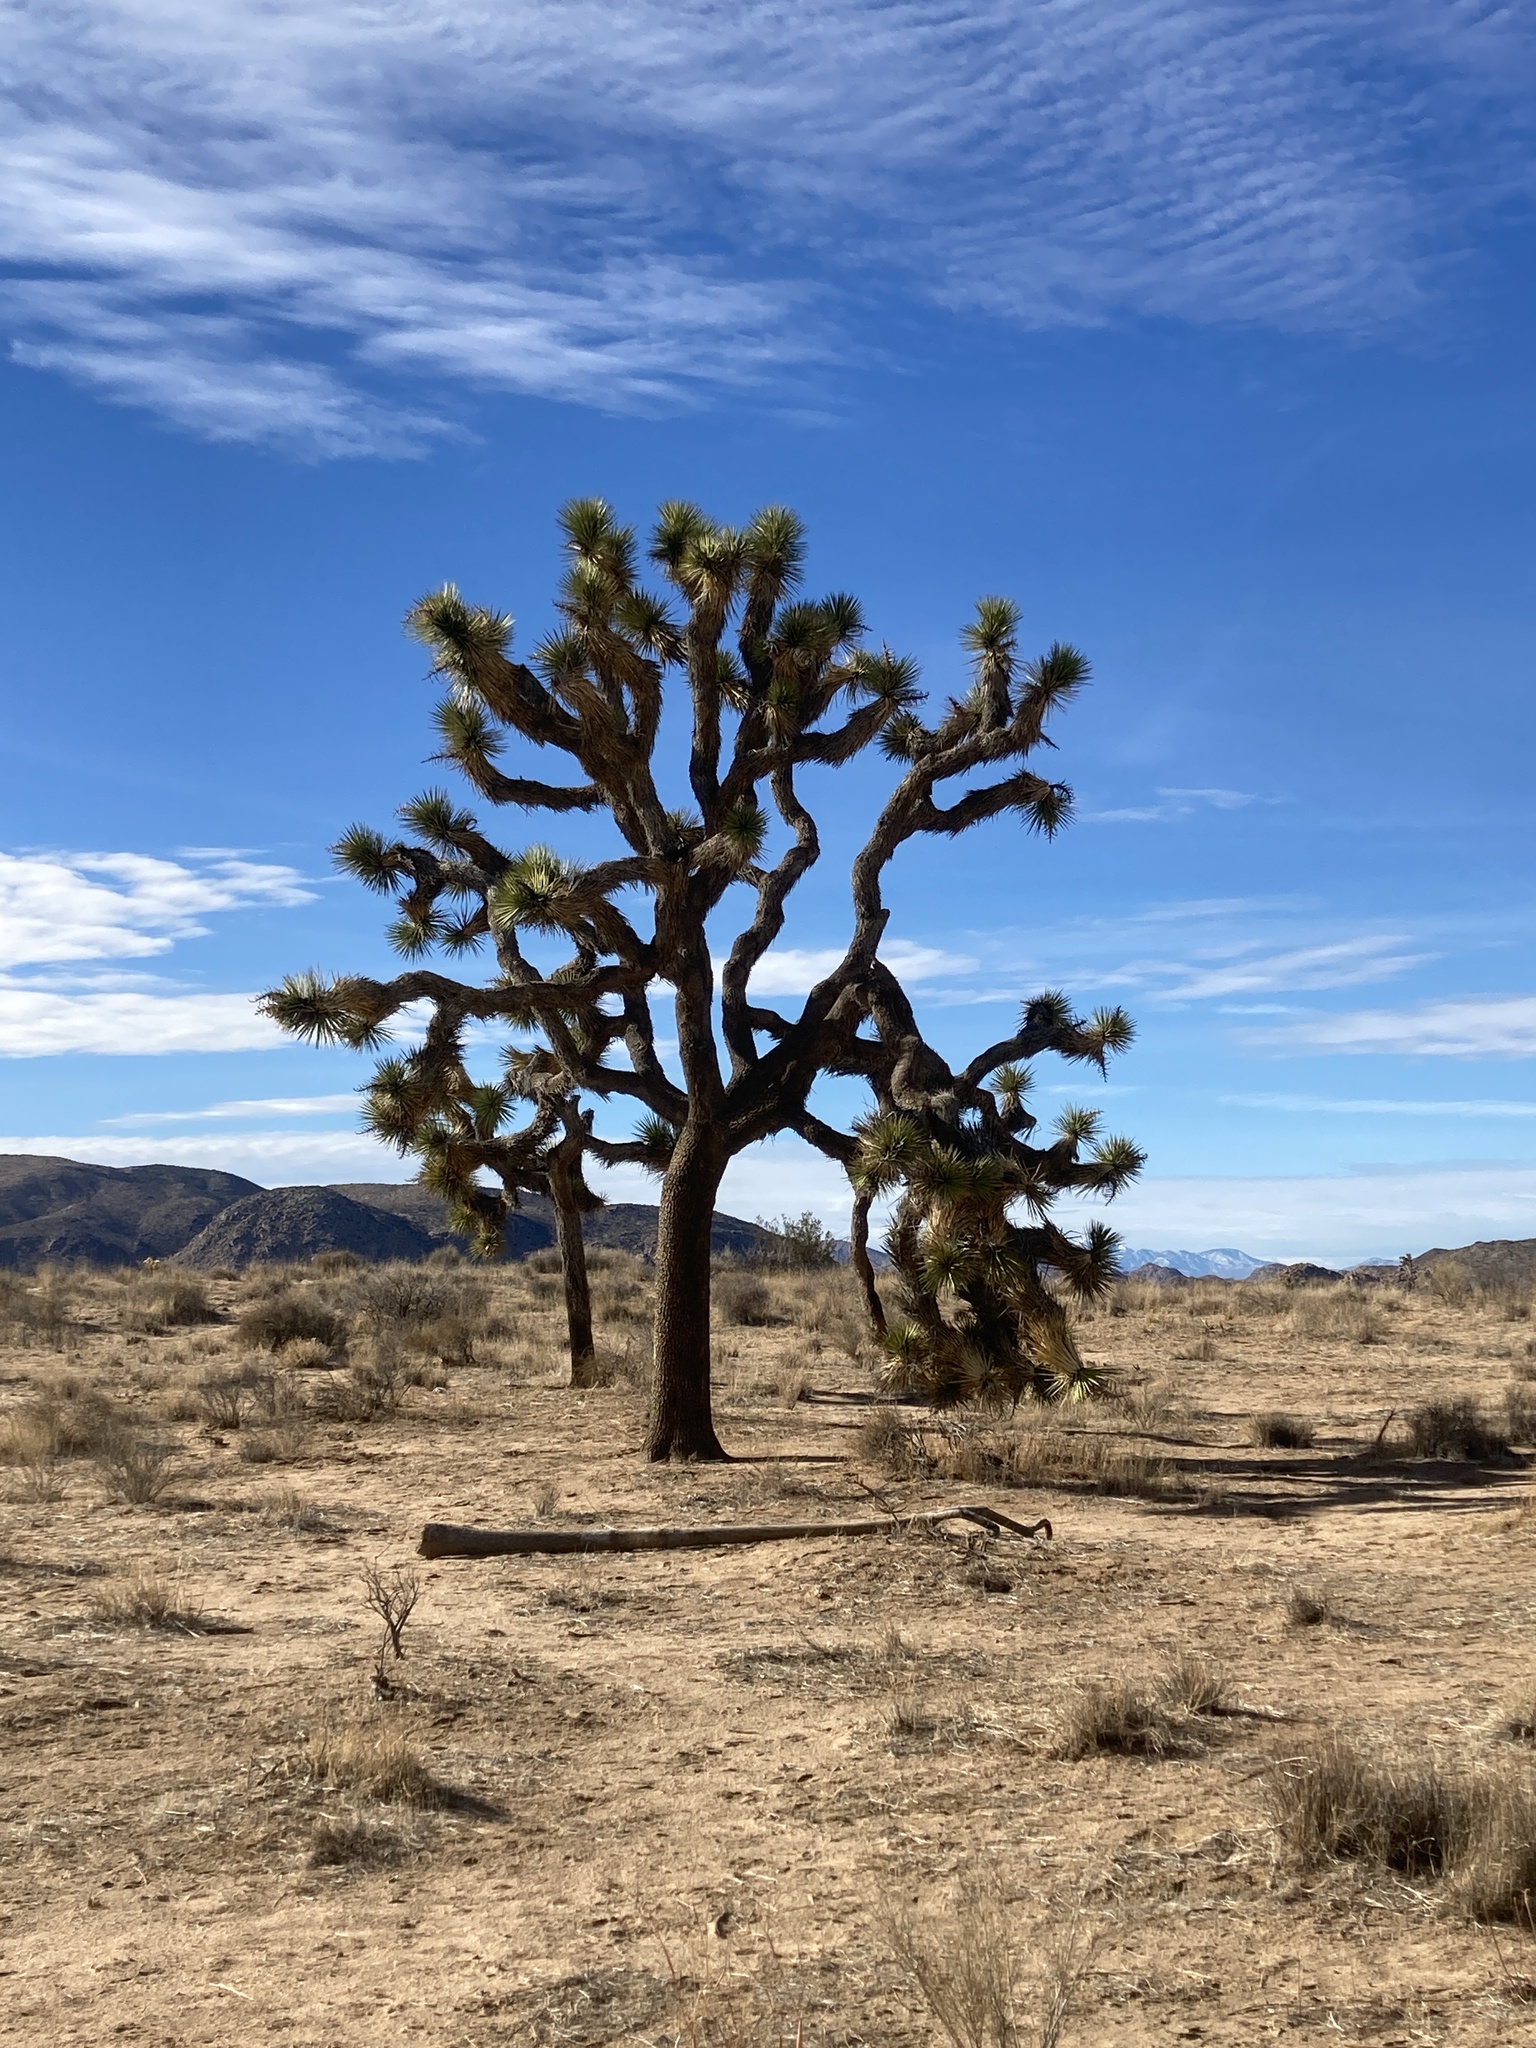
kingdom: Plantae
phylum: Tracheophyta
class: Liliopsida
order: Asparagales
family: Asparagaceae
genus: Yucca
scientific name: Yucca brevifolia
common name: Joshua tree
